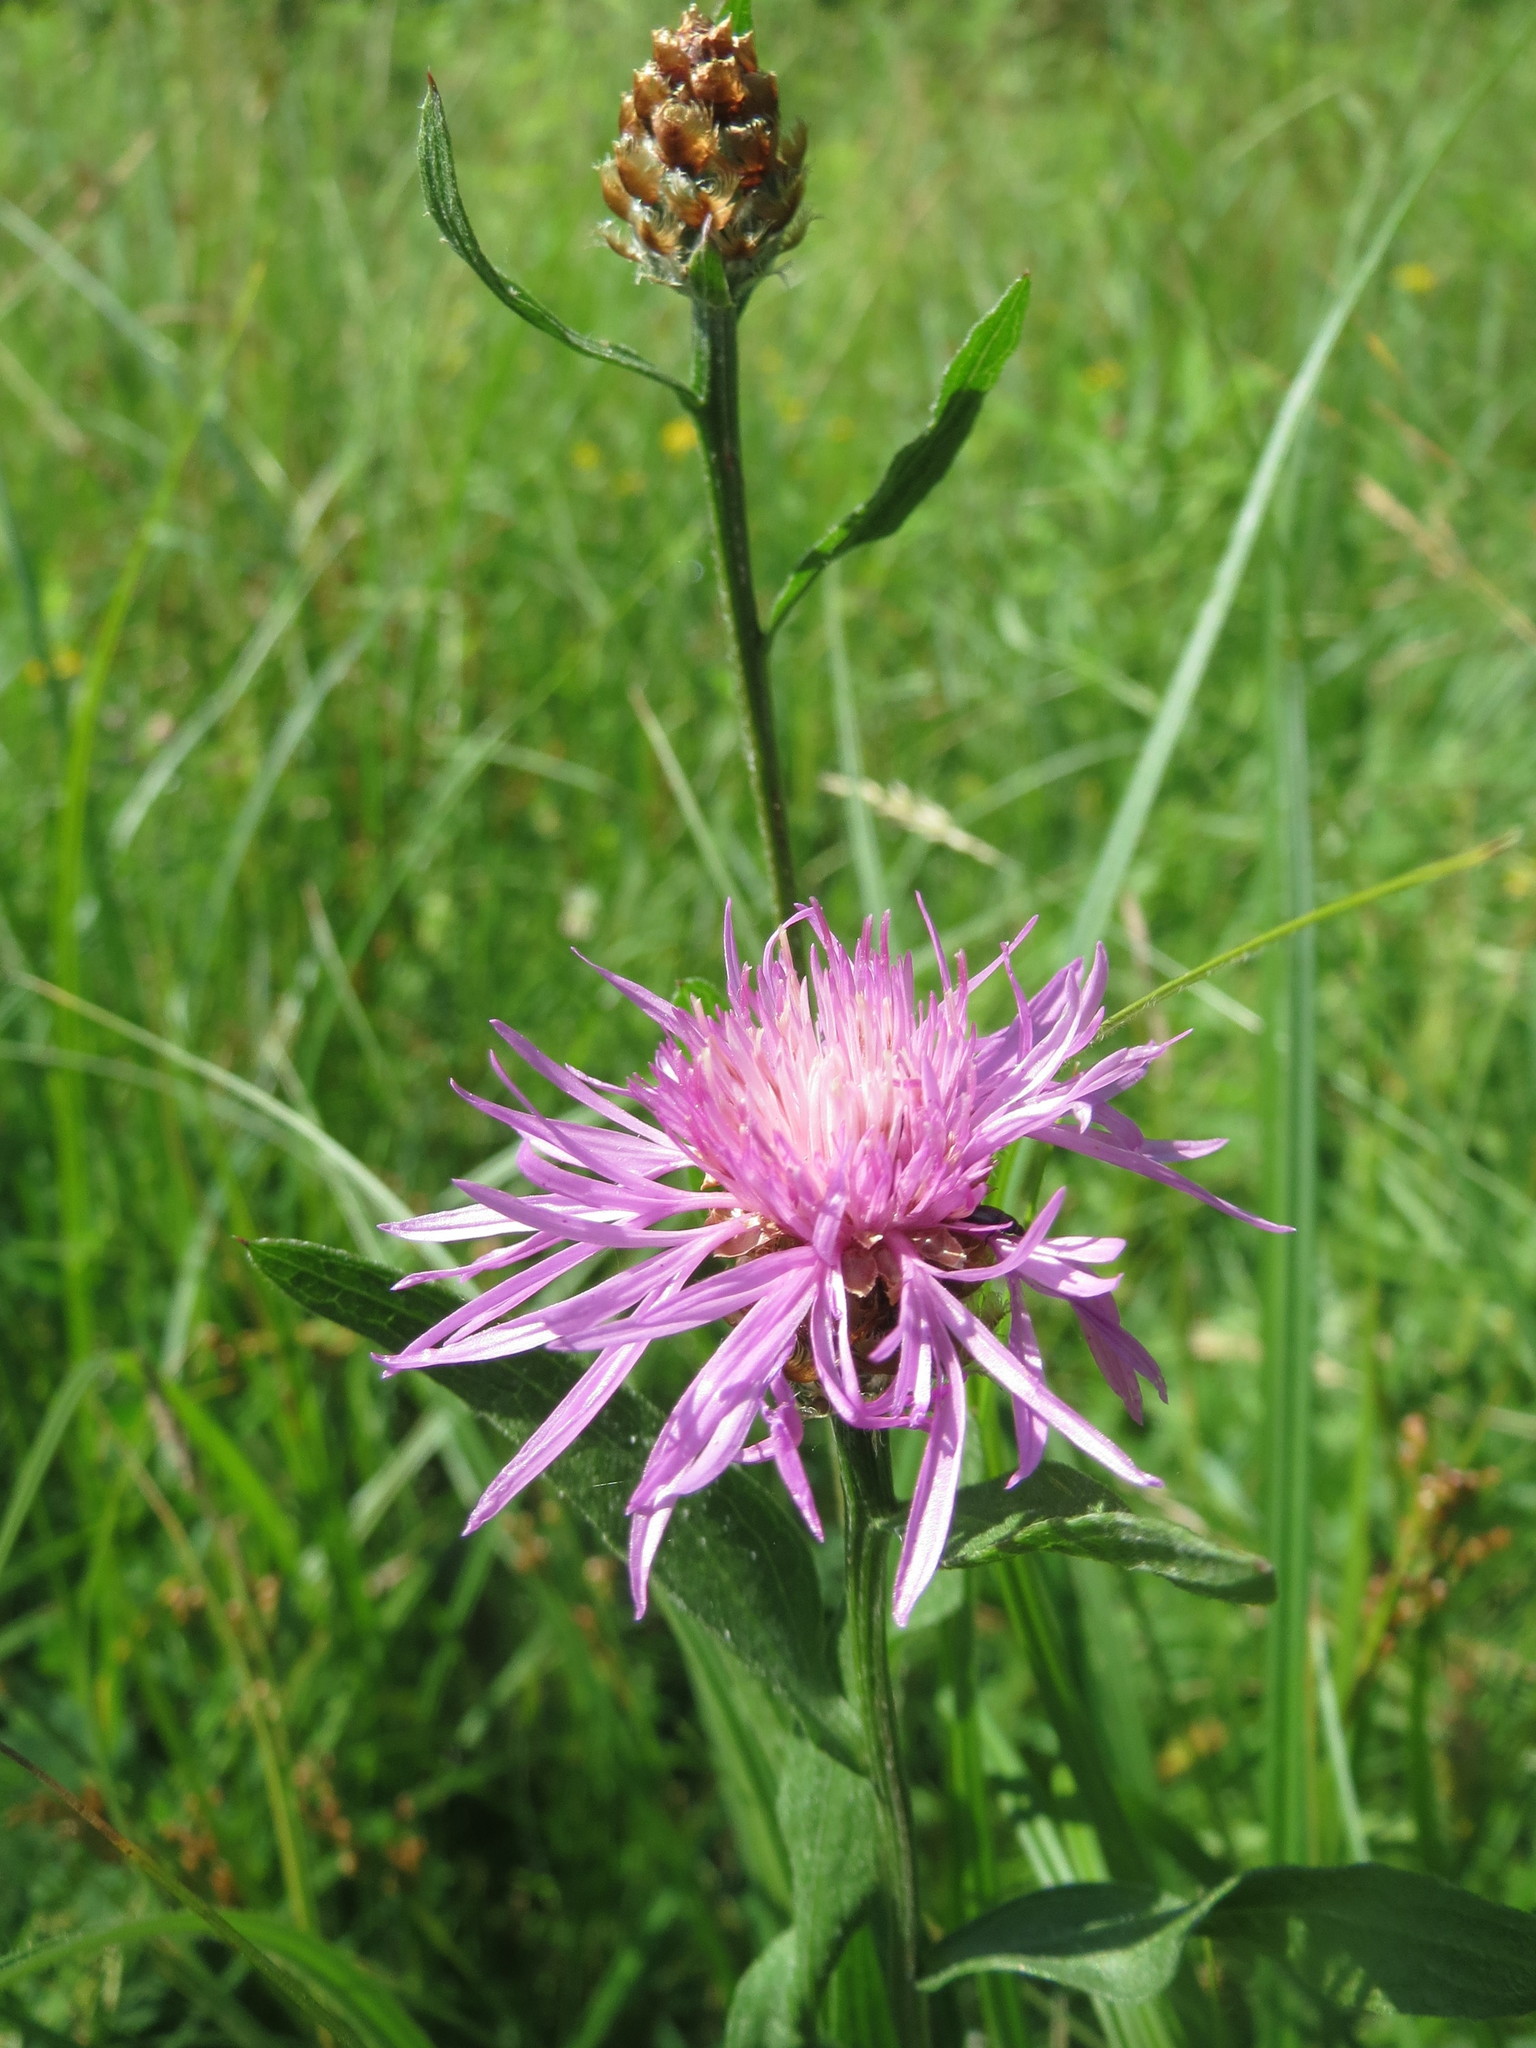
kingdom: Plantae
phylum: Tracheophyta
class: Magnoliopsida
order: Asterales
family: Asteraceae
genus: Centaurea
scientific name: Centaurea jacea
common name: Brown knapweed
